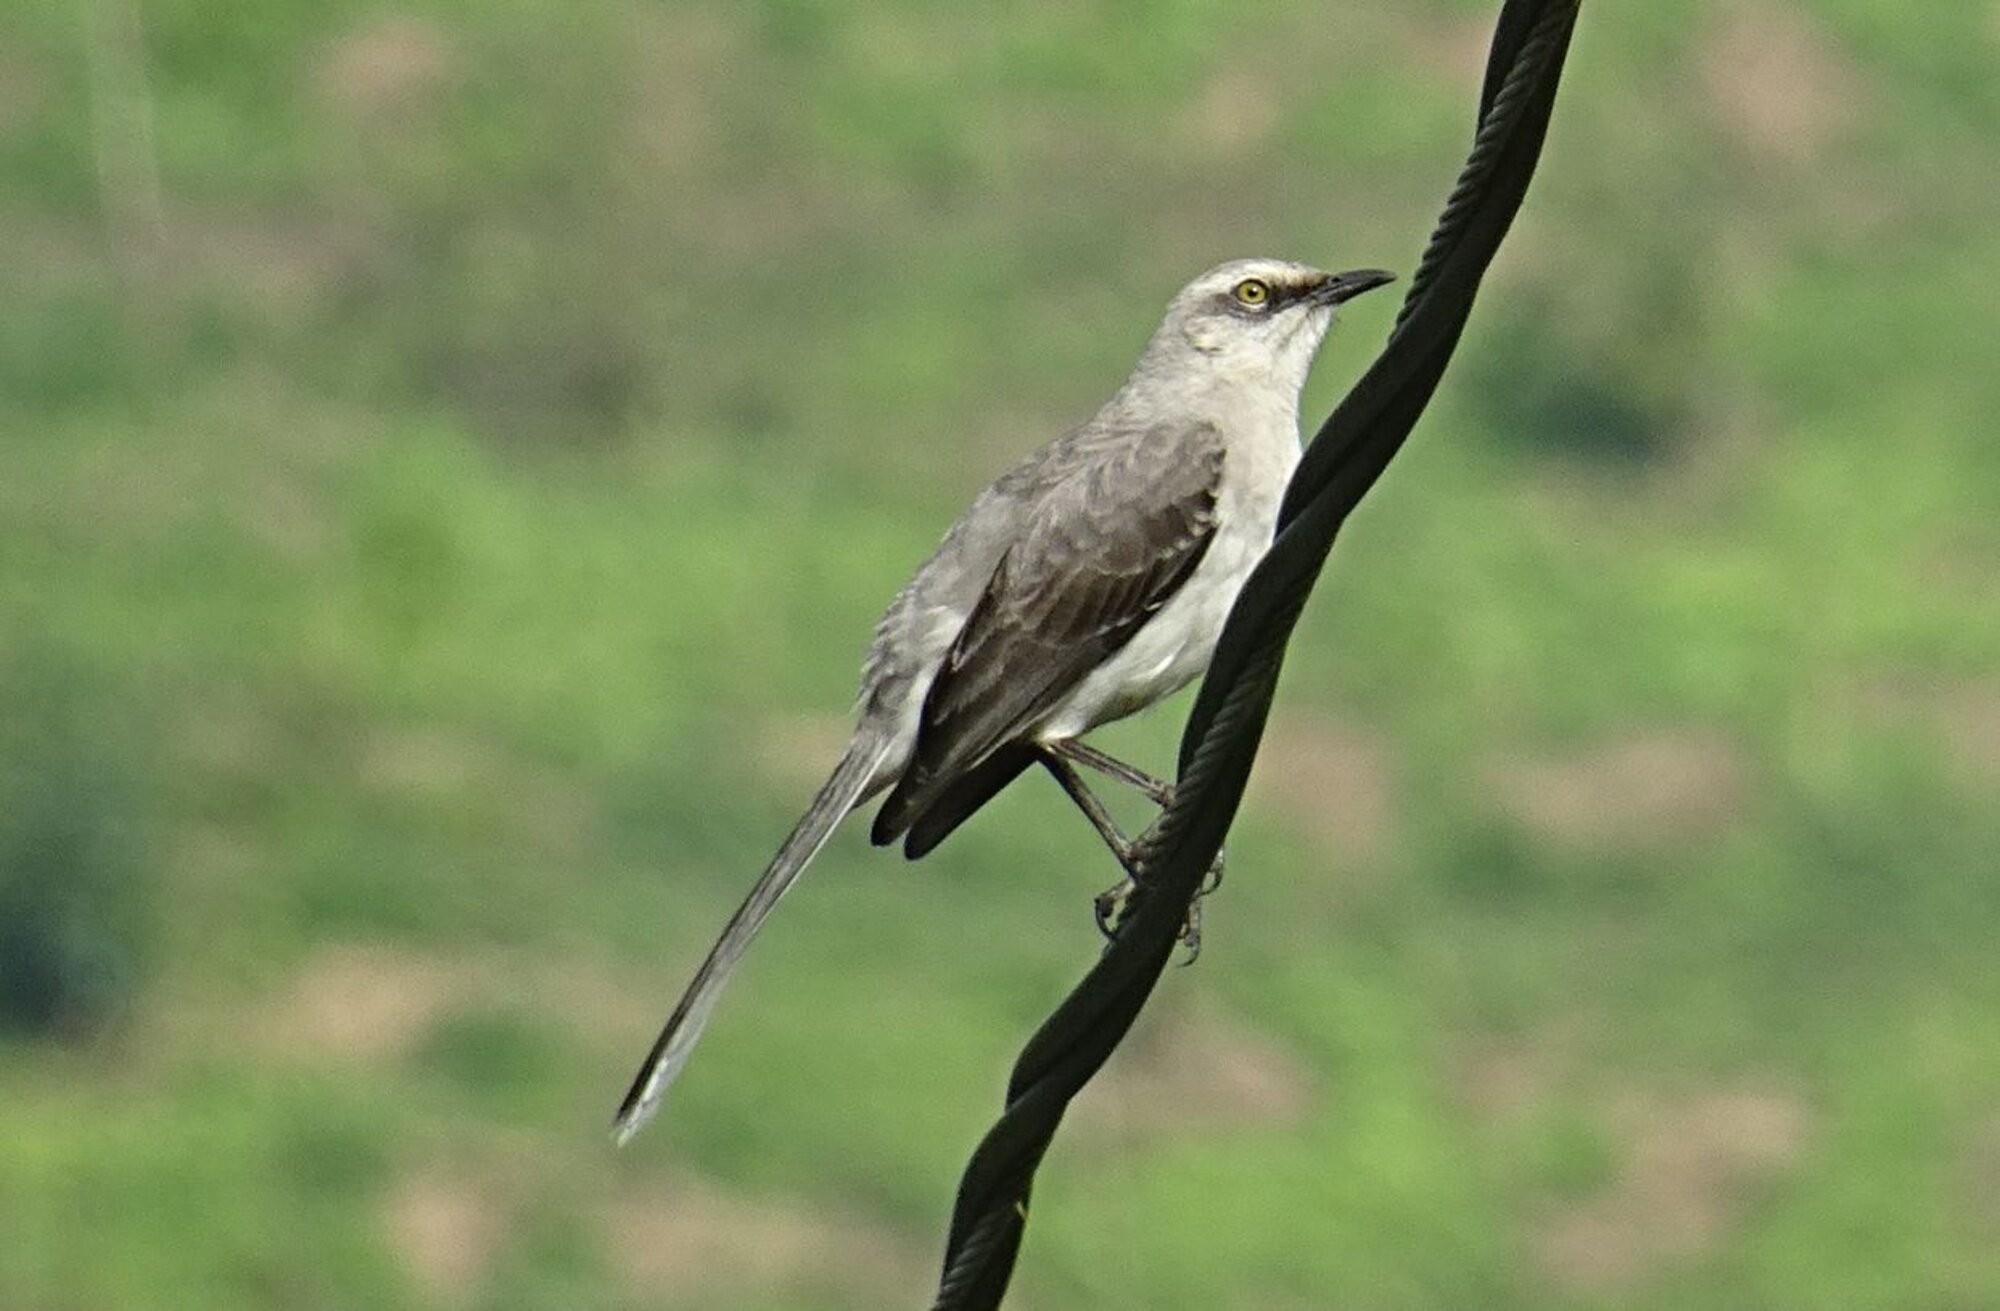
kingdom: Animalia
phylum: Chordata
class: Aves
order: Passeriformes
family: Mimidae
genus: Mimus
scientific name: Mimus gilvus
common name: Tropical mockingbird
